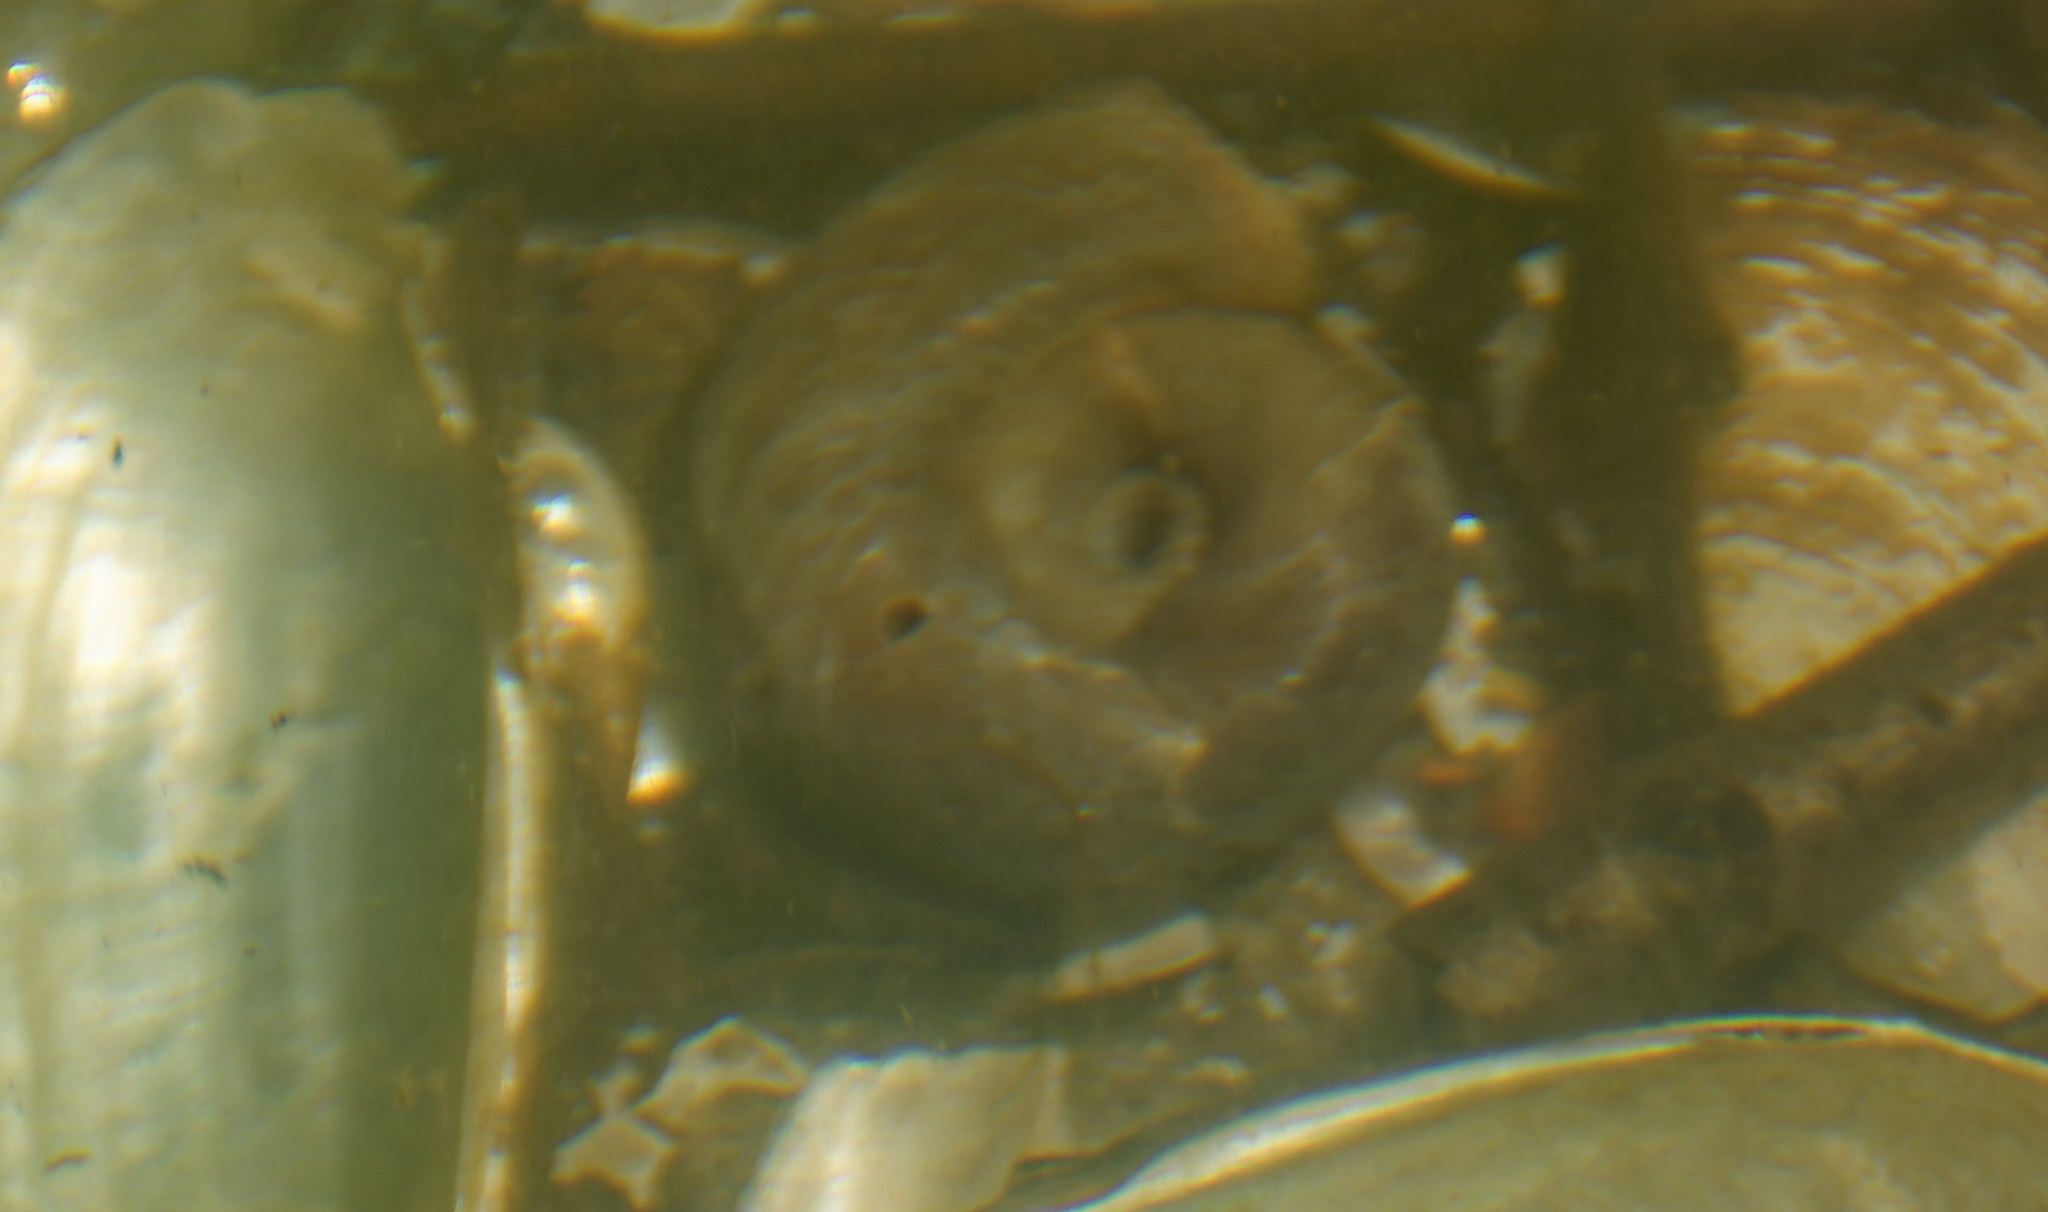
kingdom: Animalia
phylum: Mollusca
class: Gastropoda
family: Planorbidae
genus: Planorbarius
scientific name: Planorbarius corneus
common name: Great ramshorn
